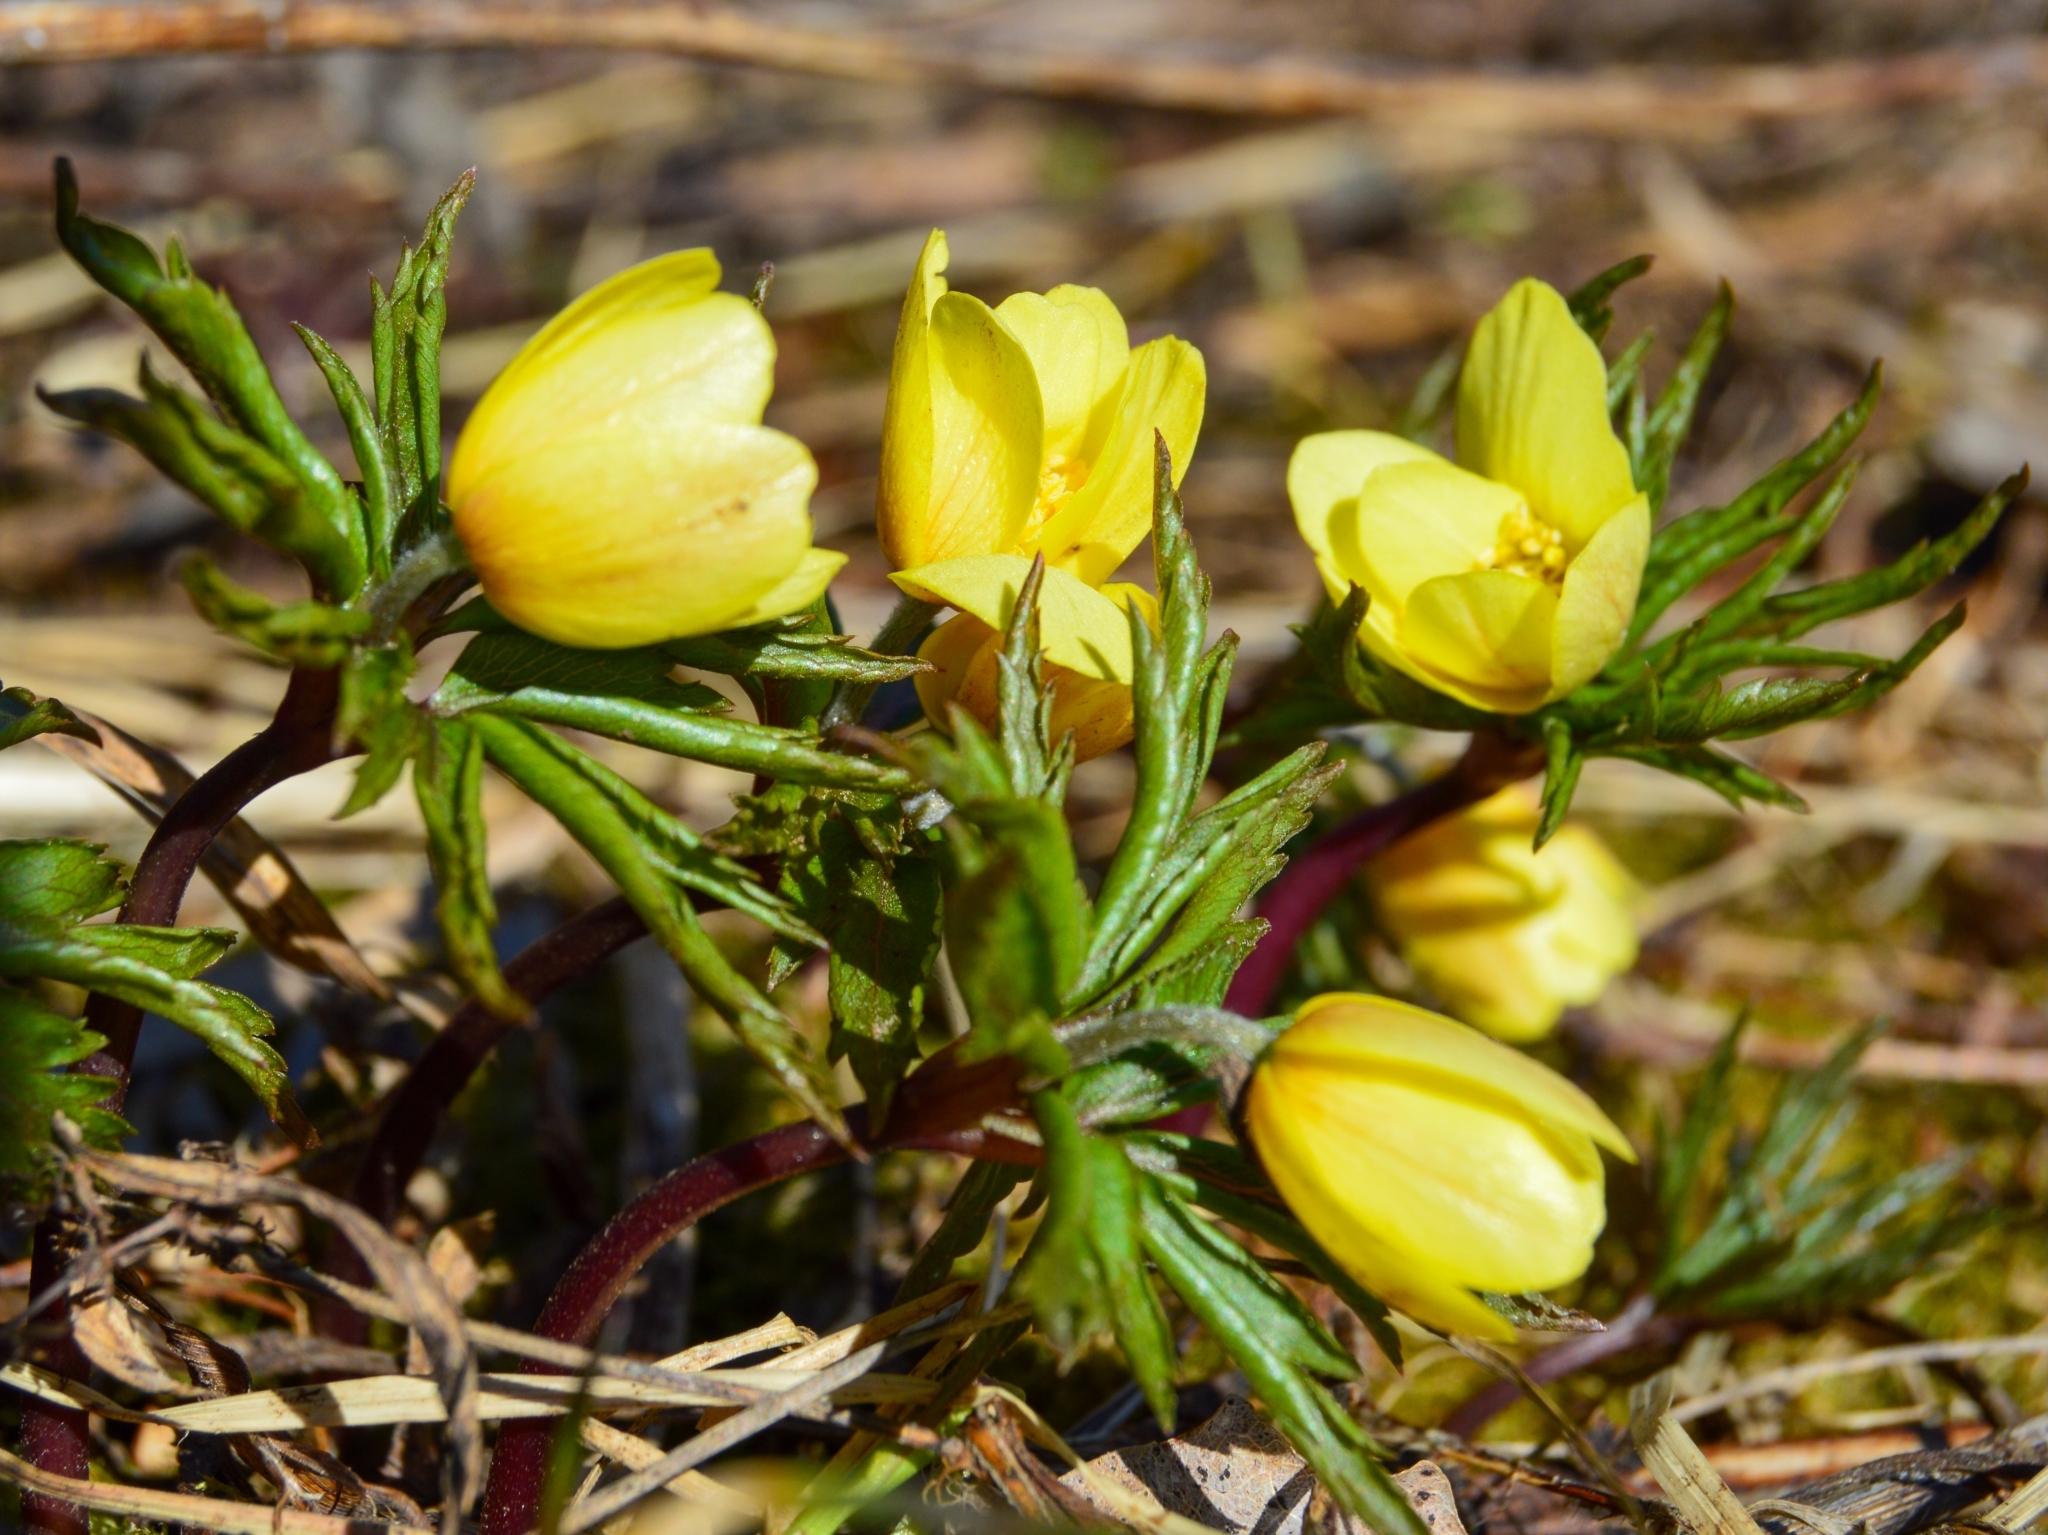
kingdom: Plantae
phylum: Tracheophyta
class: Magnoliopsida
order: Ranunculales
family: Ranunculaceae
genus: Anemone
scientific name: Anemone korzchinskyi
